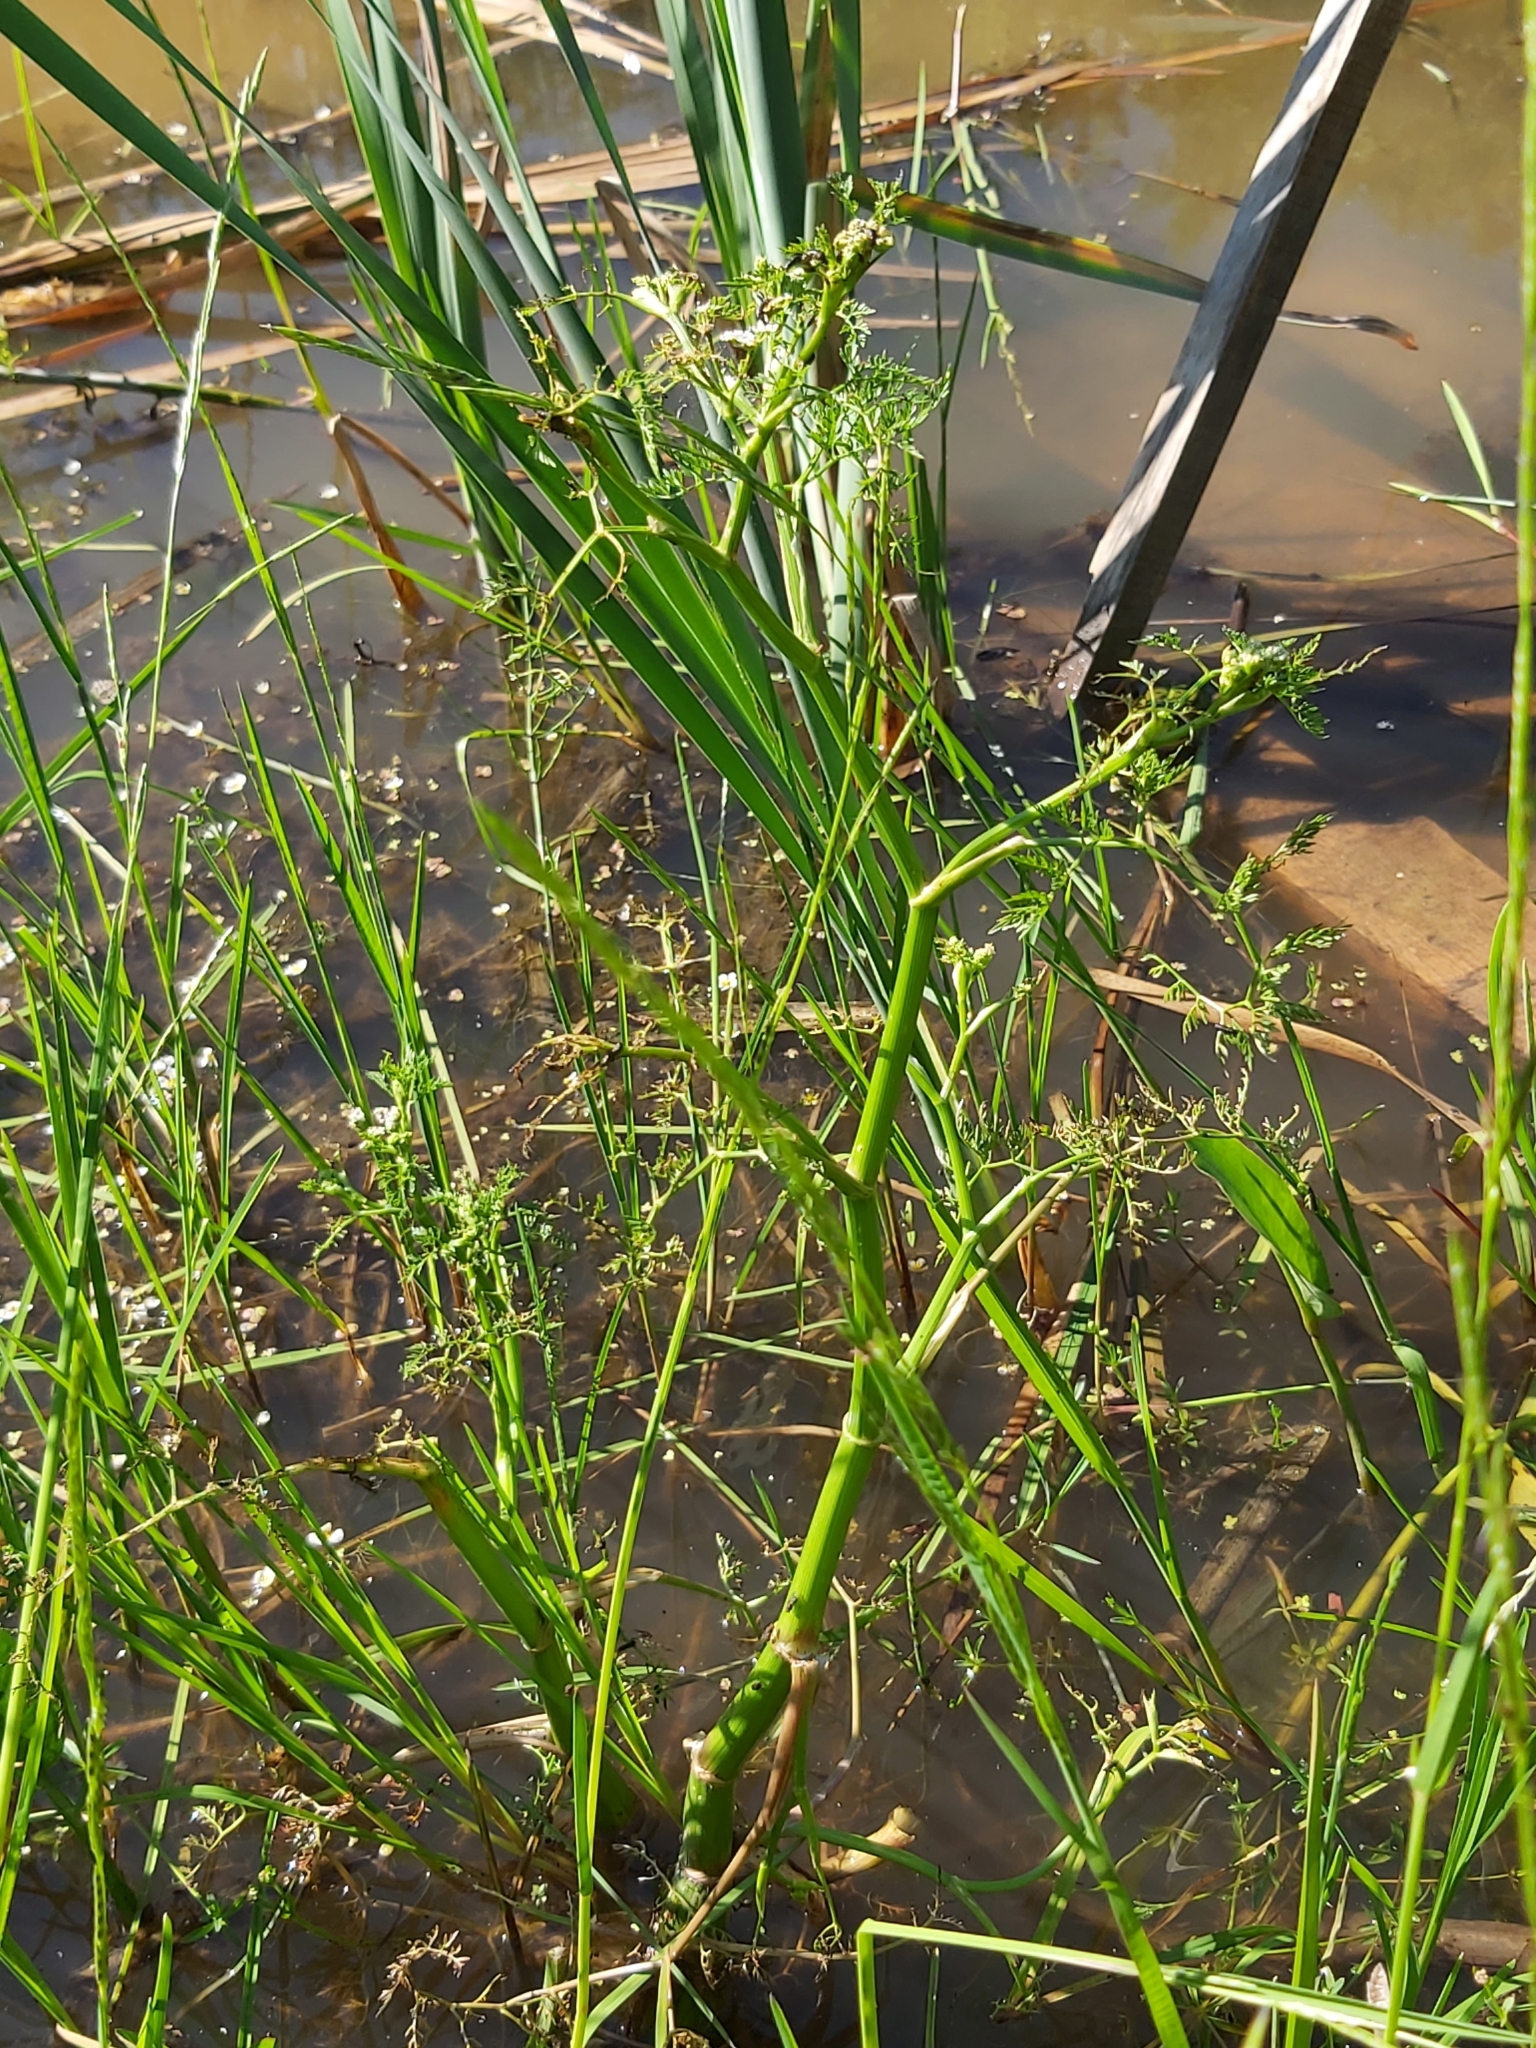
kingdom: Plantae
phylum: Tracheophyta
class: Magnoliopsida
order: Apiales
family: Apiaceae
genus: Oenanthe
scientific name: Oenanthe aquatica
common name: Fine-leaved water-dropwort
